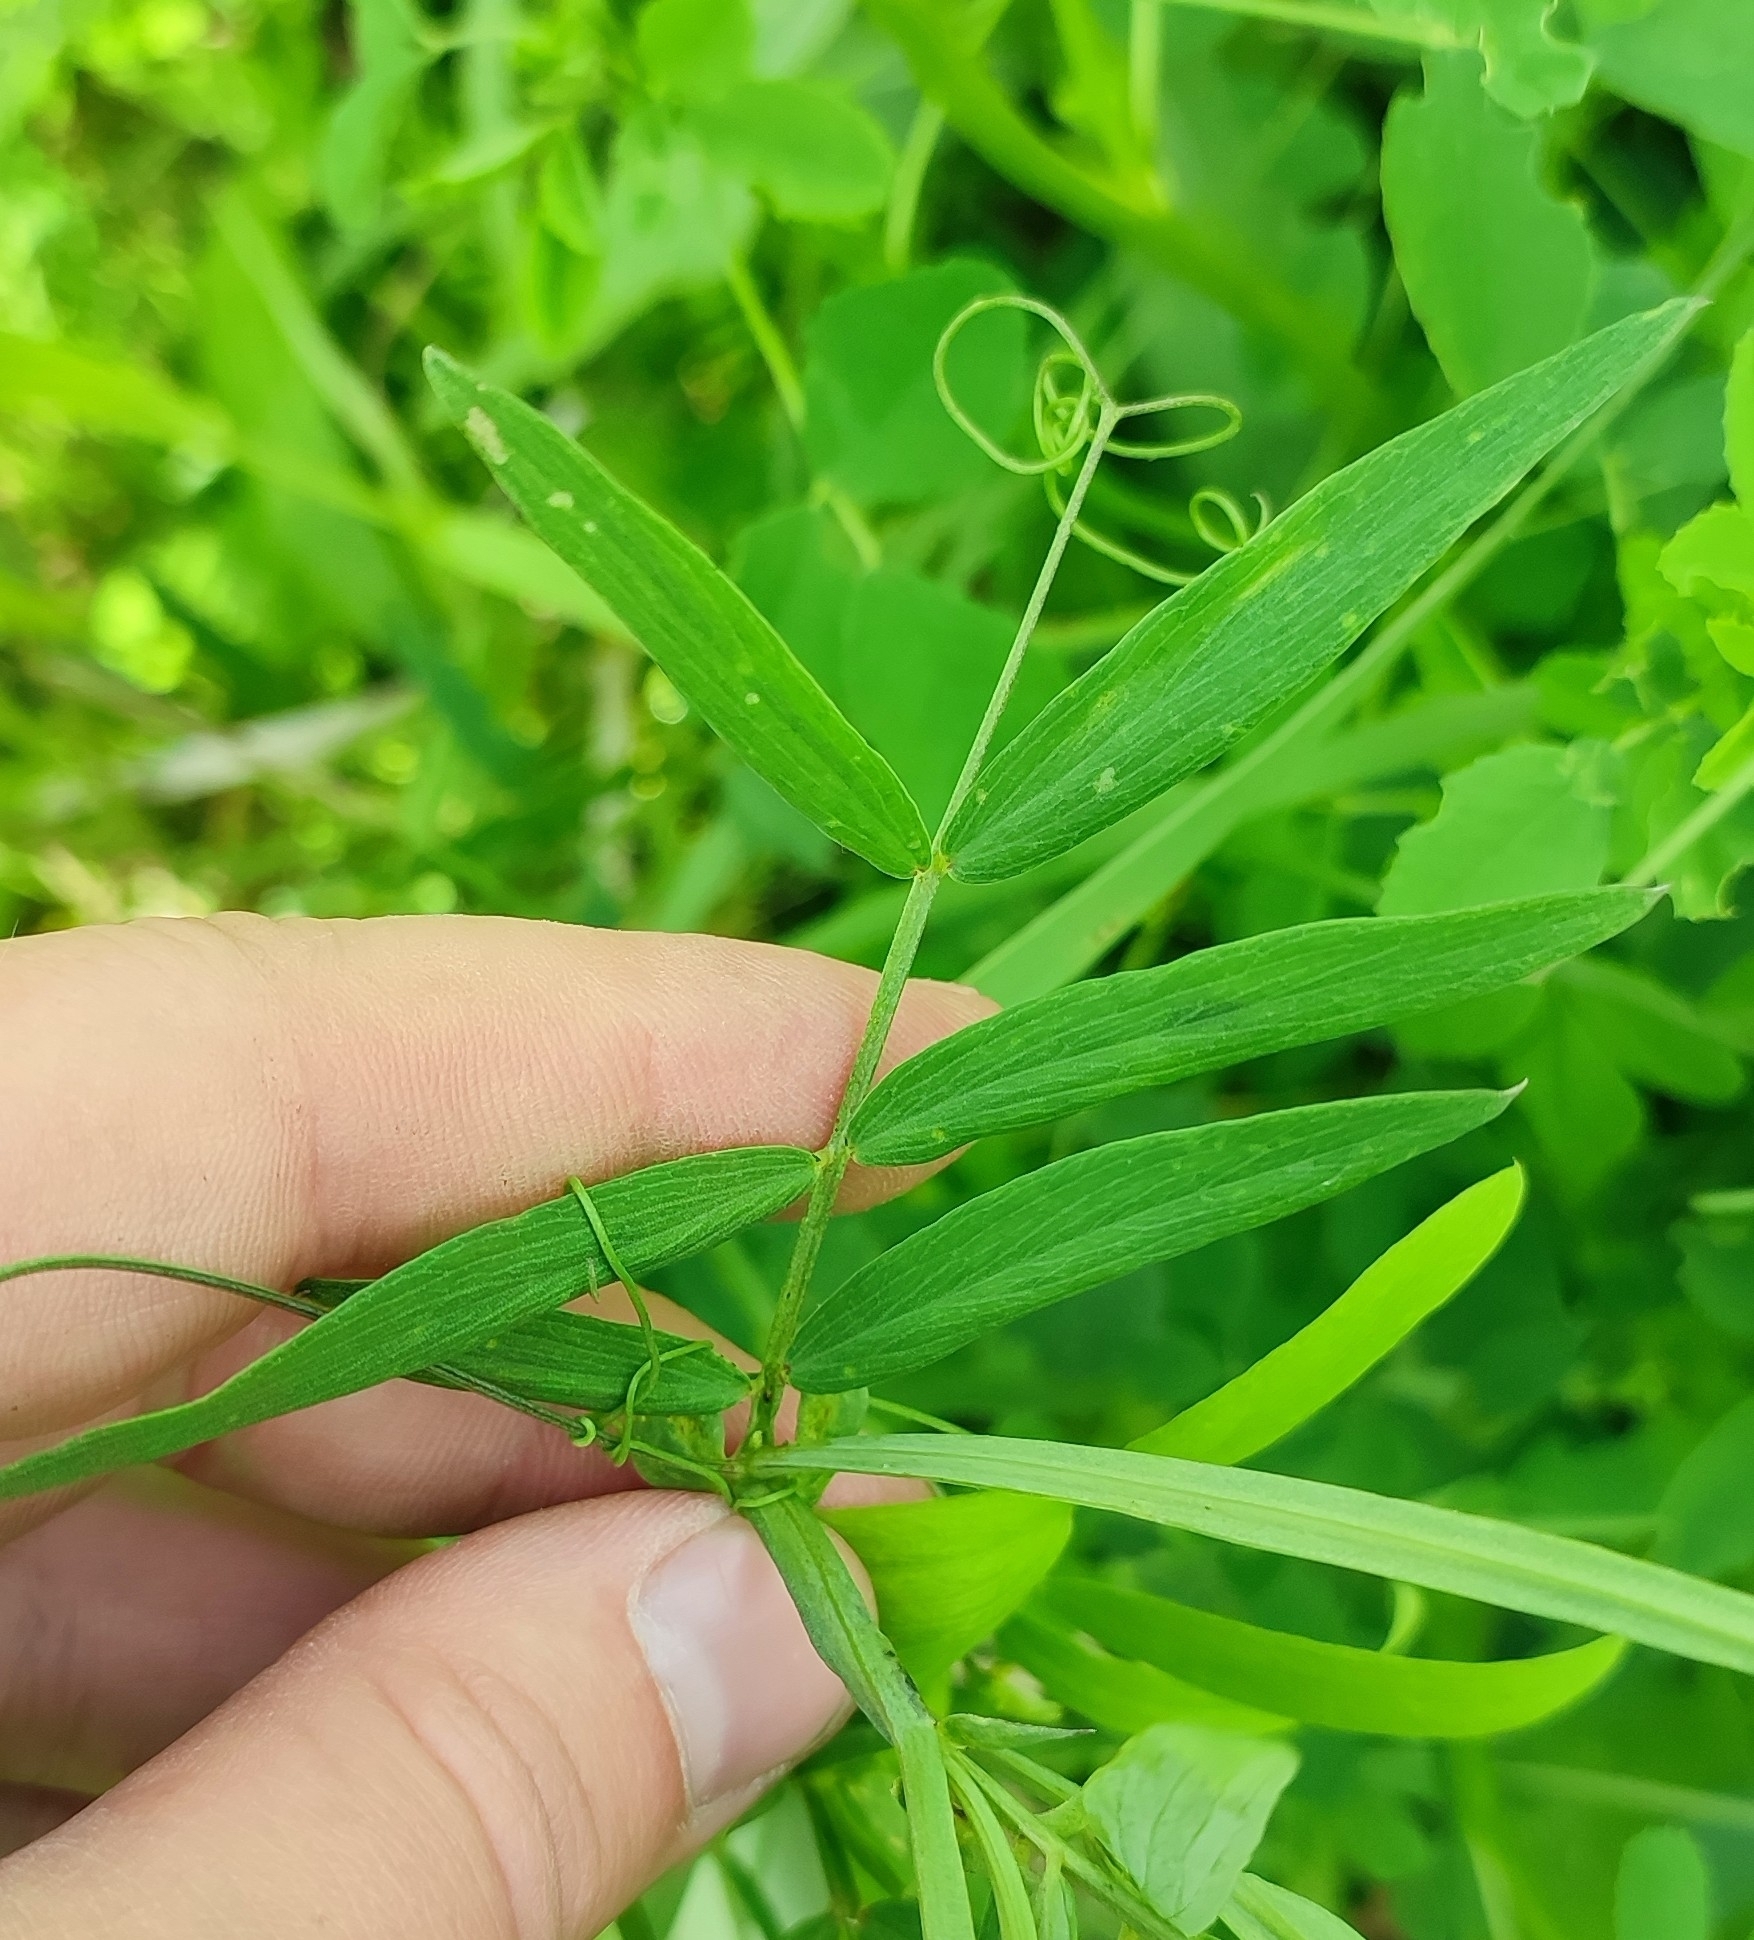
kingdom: Plantae
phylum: Tracheophyta
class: Magnoliopsida
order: Fabales
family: Fabaceae
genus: Lathyrus
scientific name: Lathyrus palustris
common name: Marsh pea
